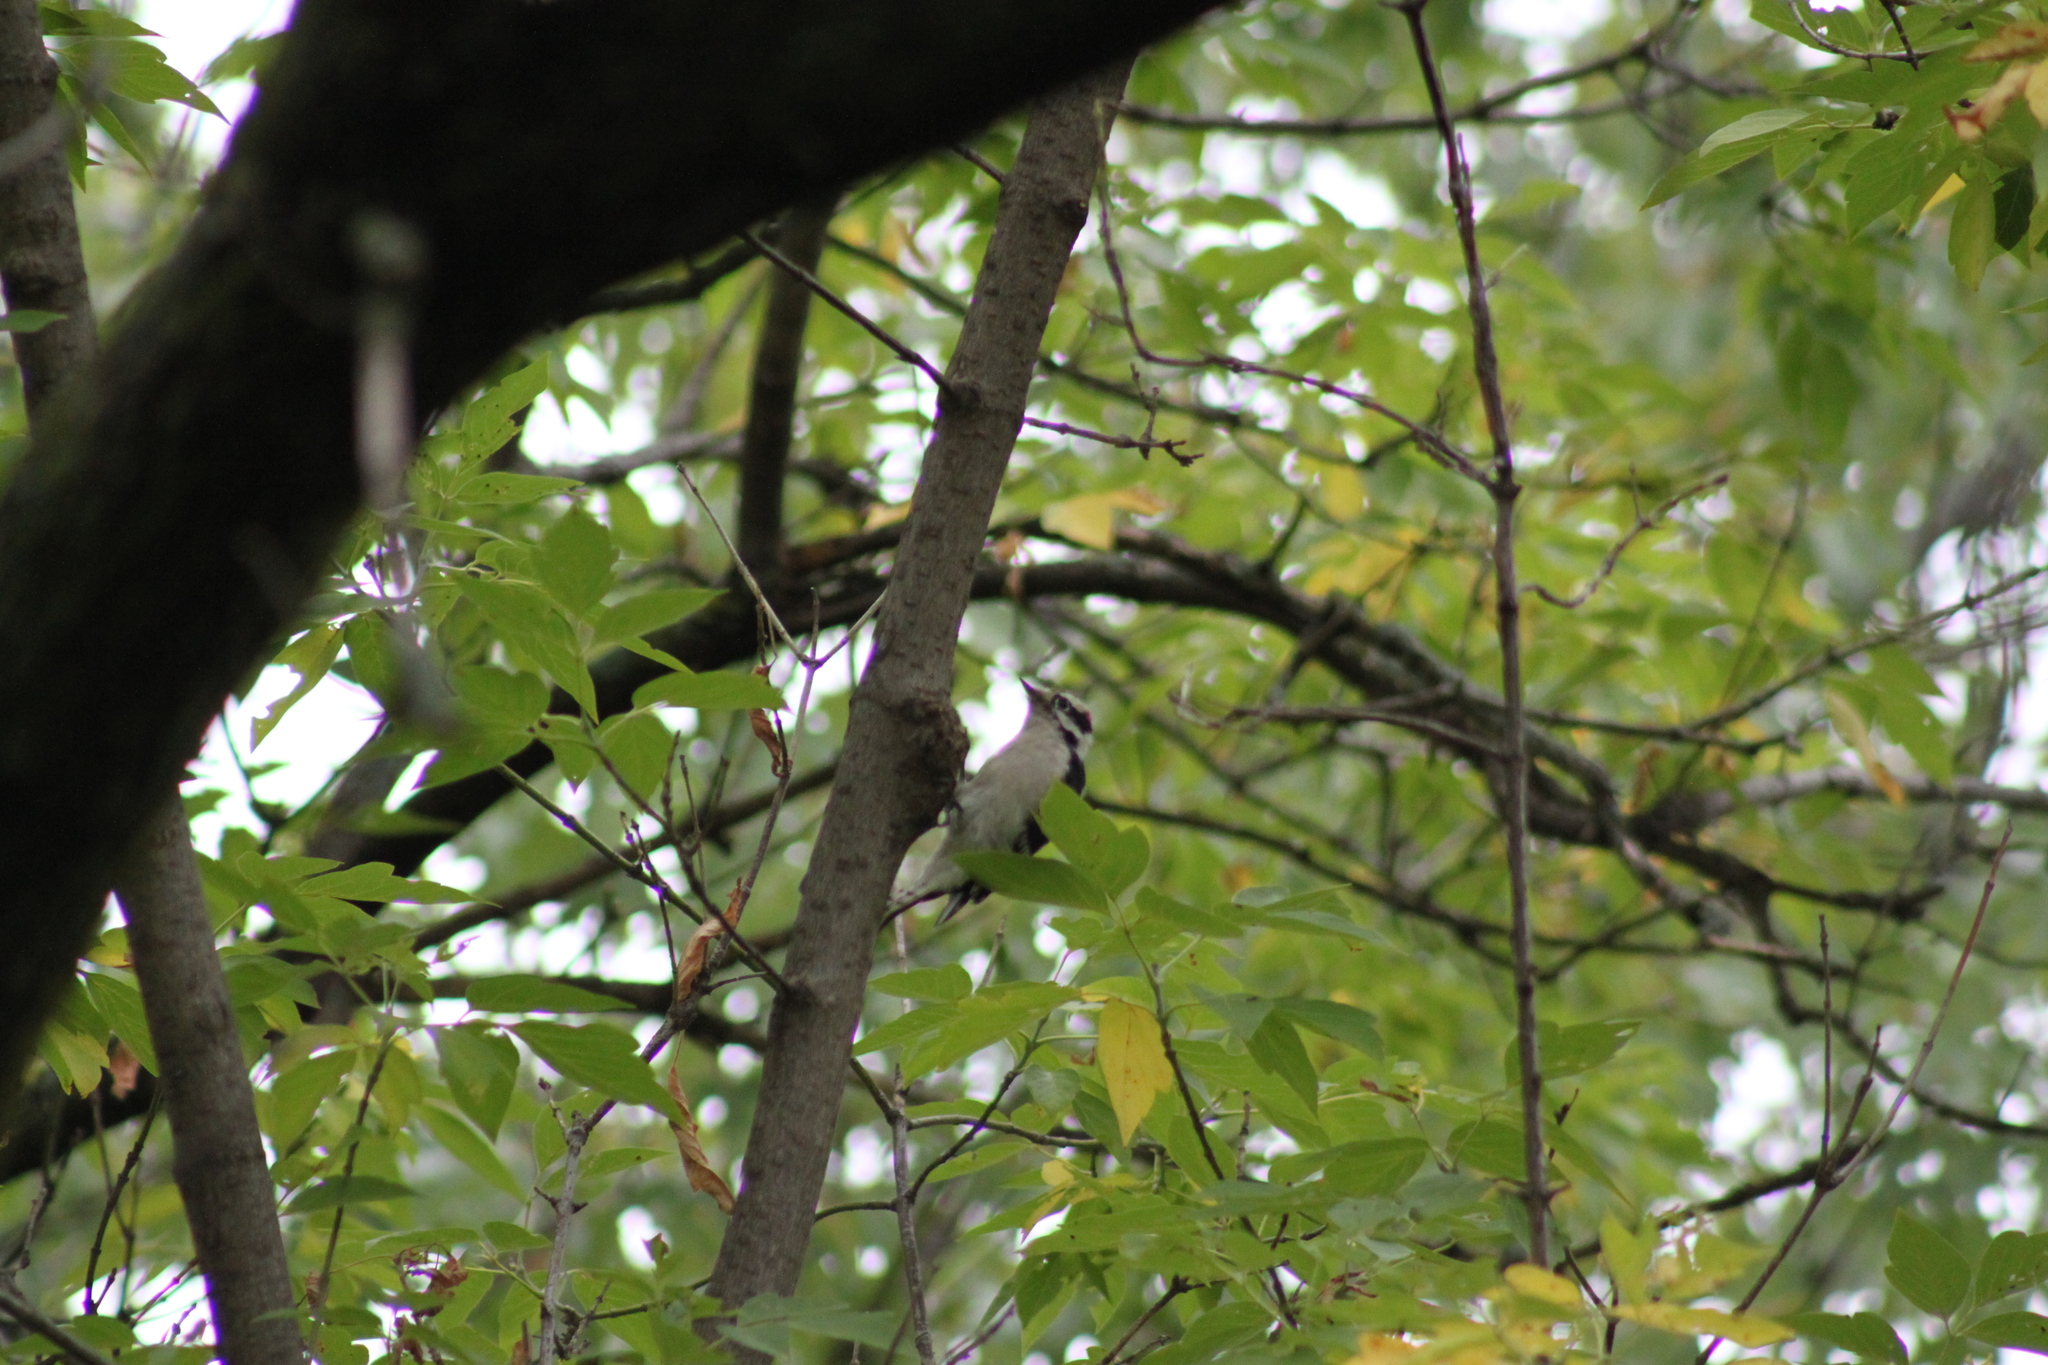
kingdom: Animalia
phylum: Chordata
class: Aves
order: Piciformes
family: Picidae
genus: Dryobates
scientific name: Dryobates pubescens
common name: Downy woodpecker
